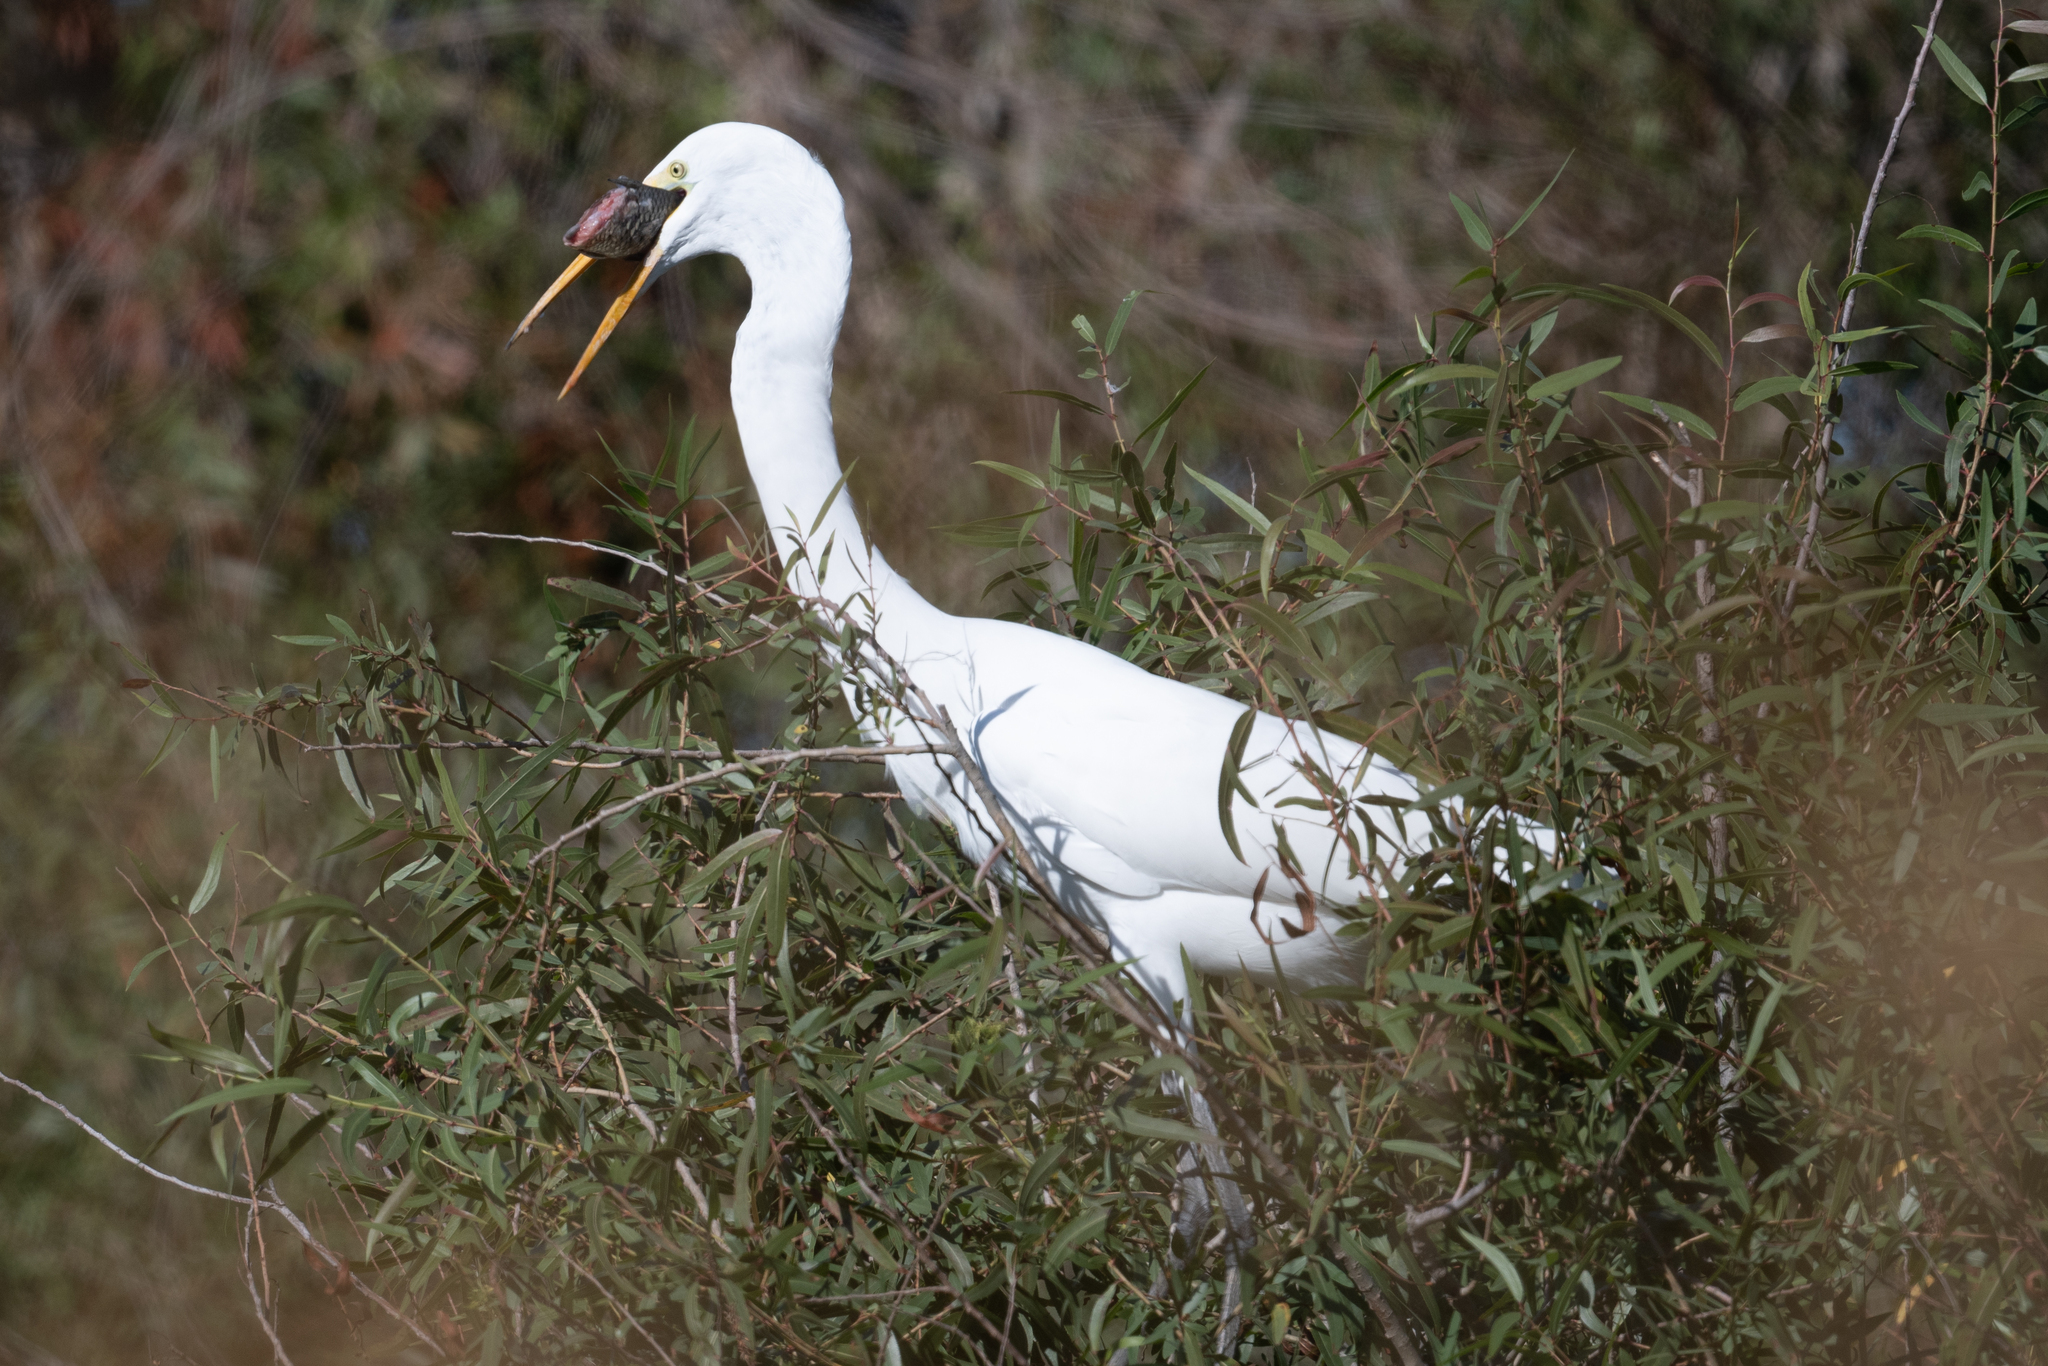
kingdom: Animalia
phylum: Chordata
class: Aves
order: Pelecaniformes
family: Ardeidae
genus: Ardea
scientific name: Ardea alba
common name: Great egret
